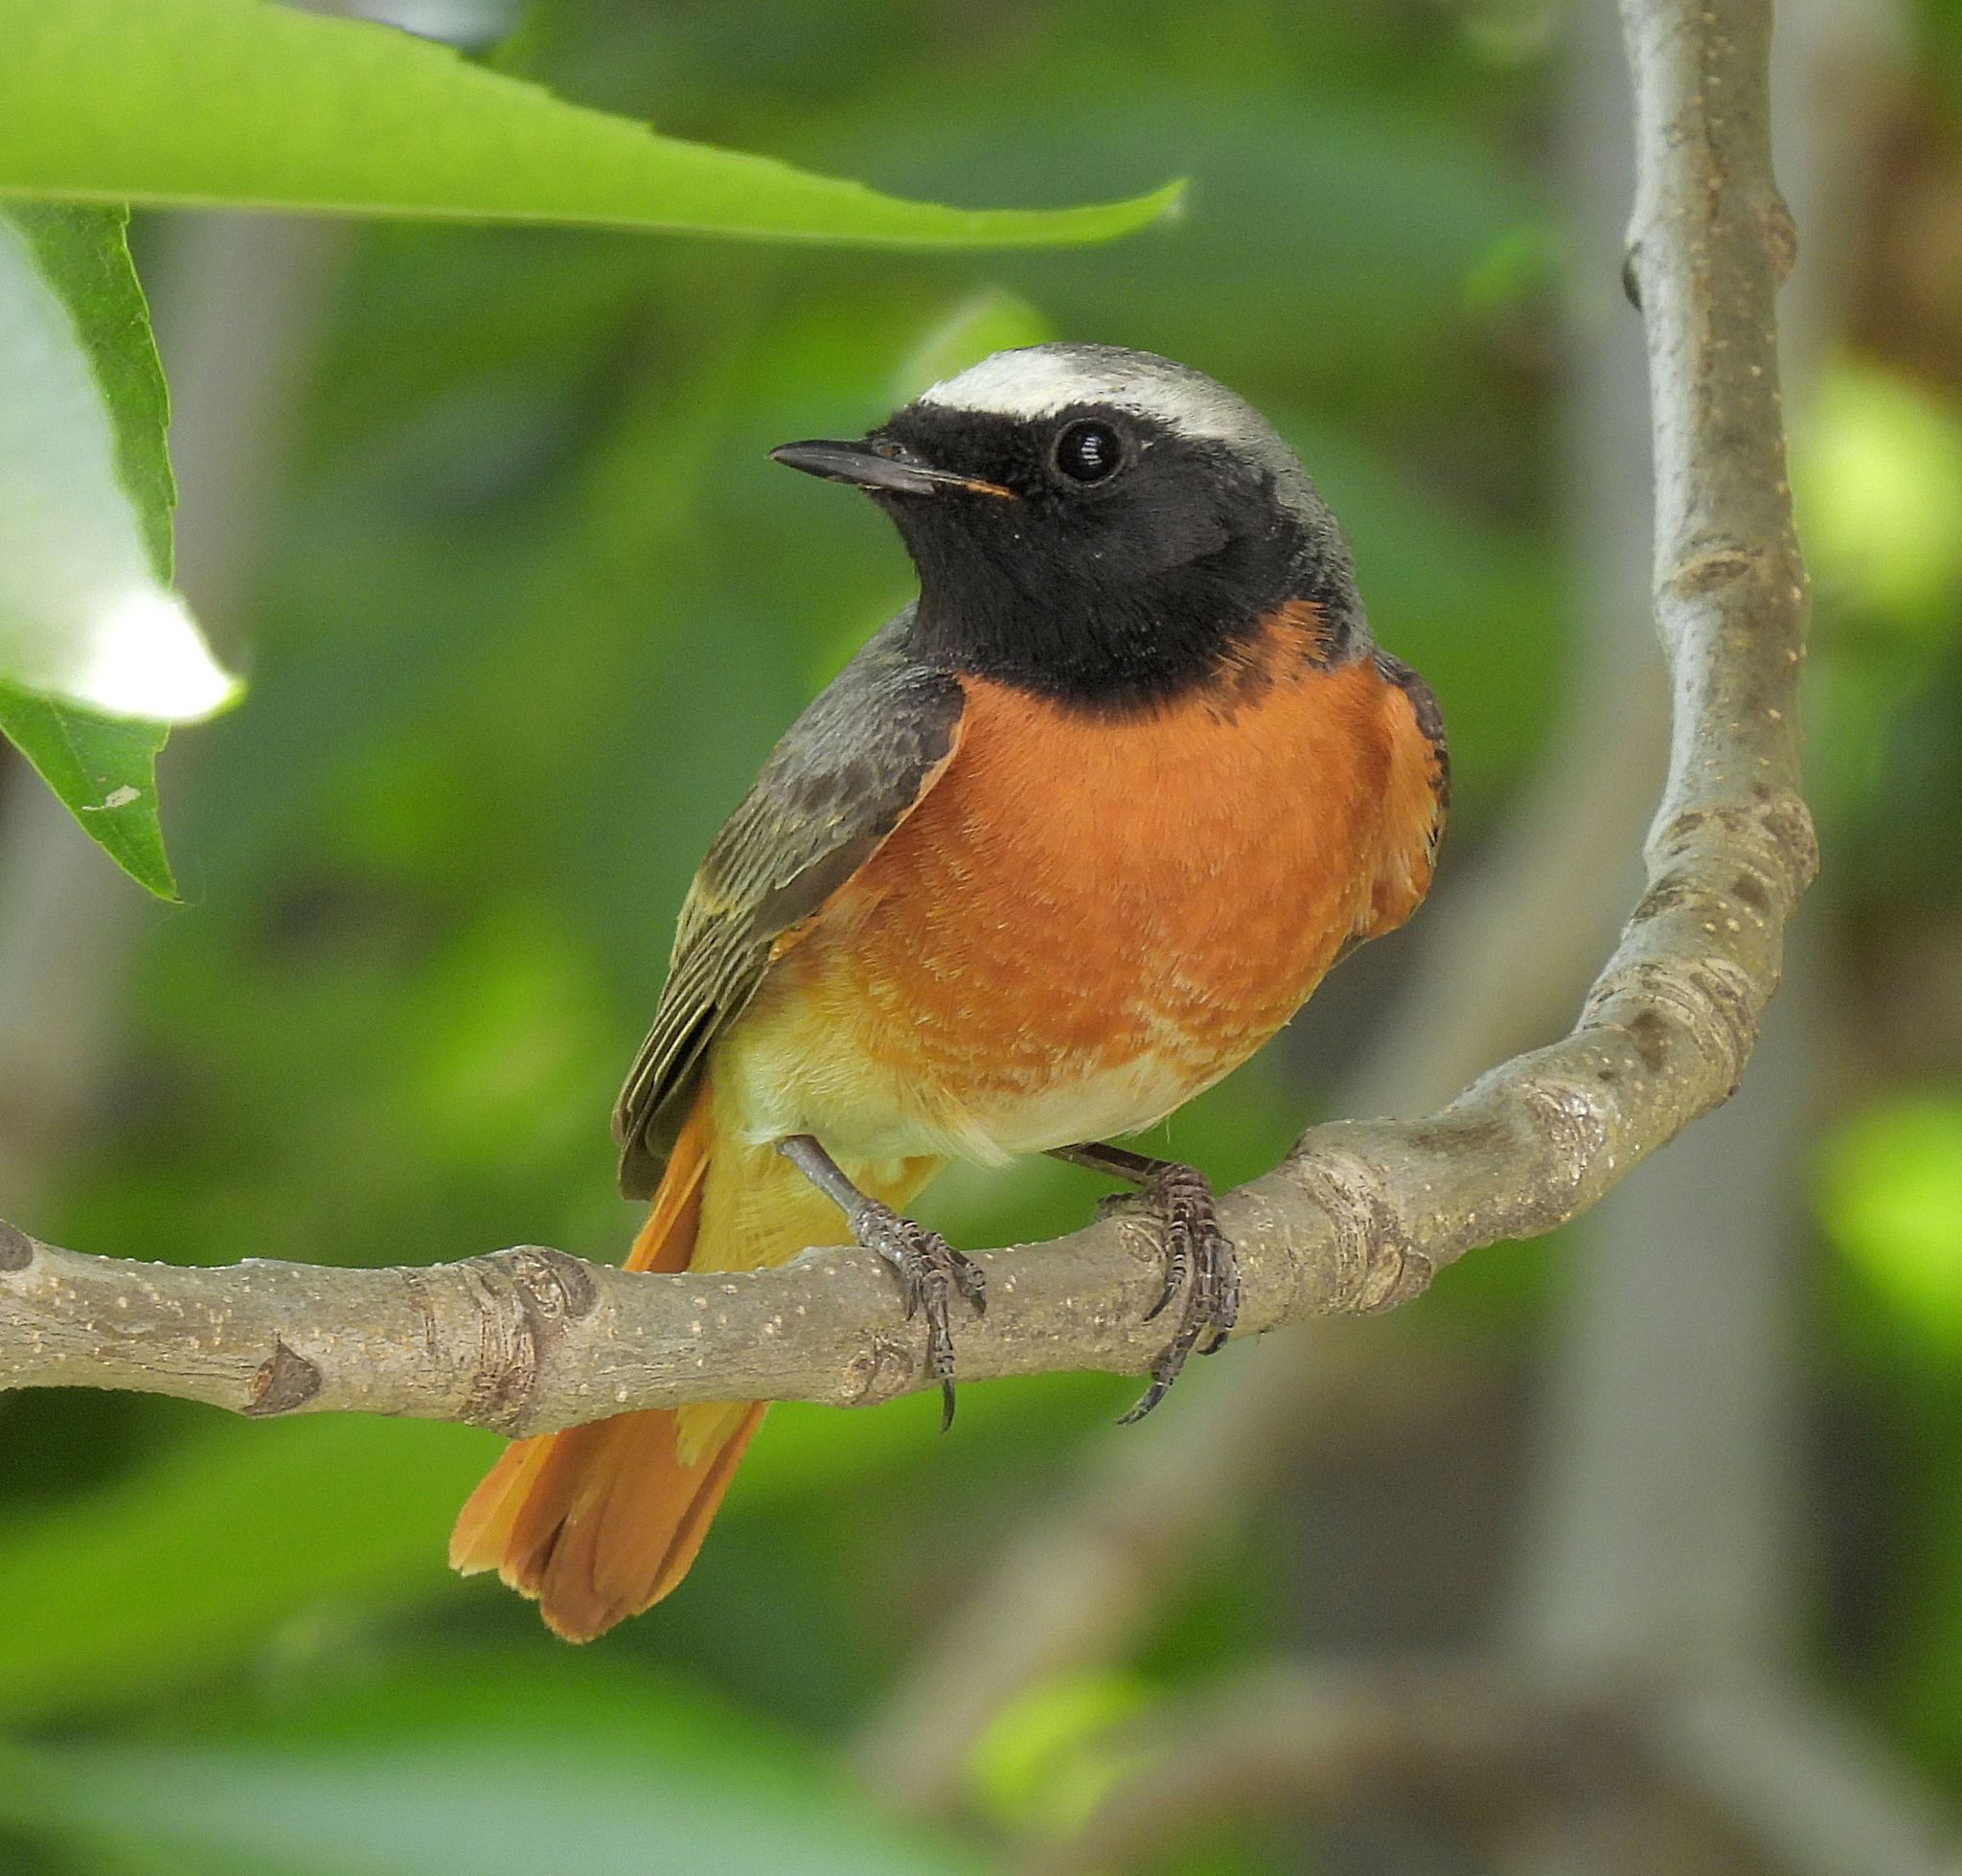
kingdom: Animalia
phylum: Chordata
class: Aves
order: Passeriformes
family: Muscicapidae
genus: Phoenicurus
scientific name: Phoenicurus phoenicurus
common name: Common redstart
